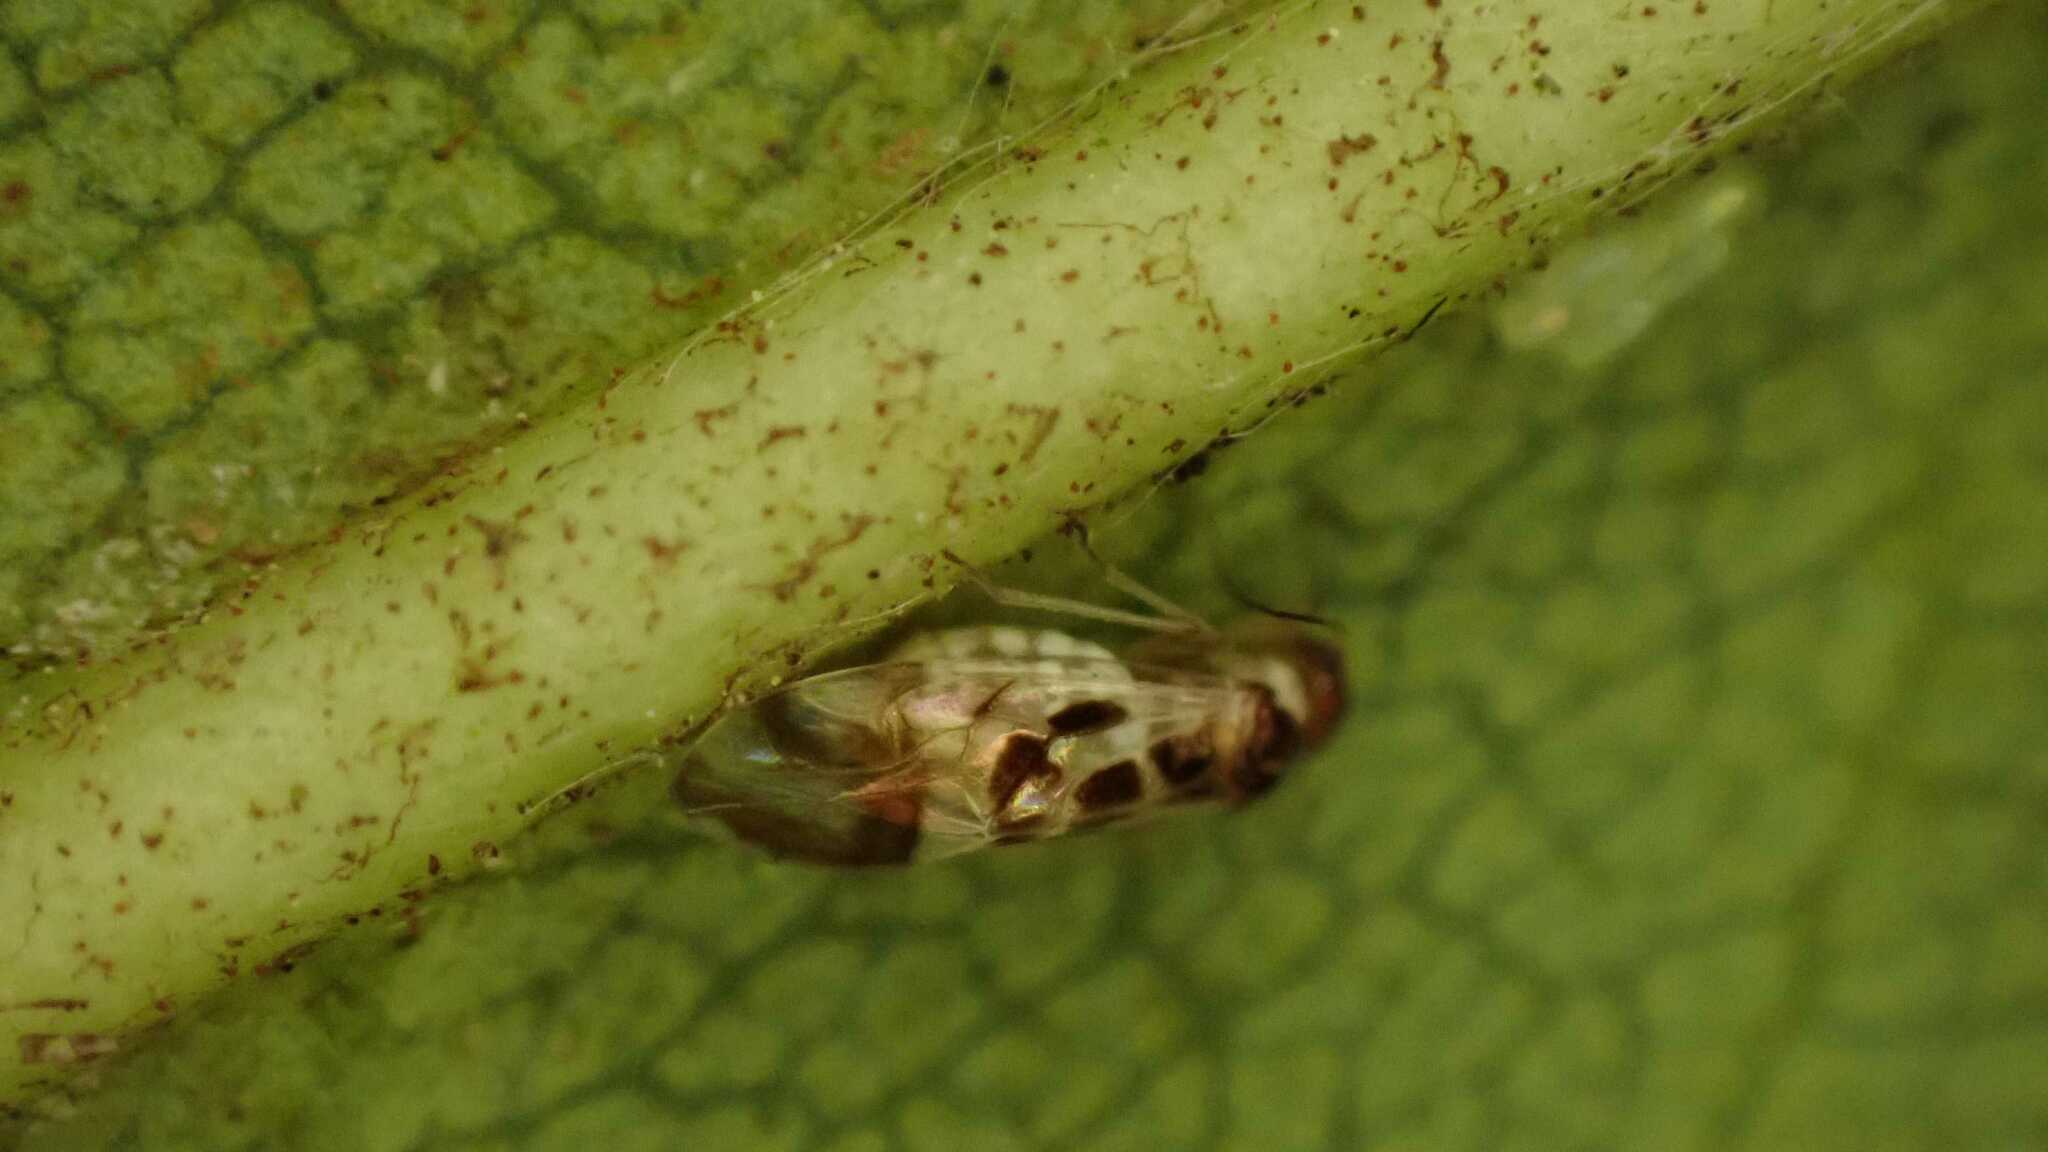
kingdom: Animalia
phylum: Arthropoda
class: Insecta
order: Psocodea
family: Stenopsocidae
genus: Graphopsocus
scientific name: Graphopsocus cruciatus
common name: Lizard bark louse
